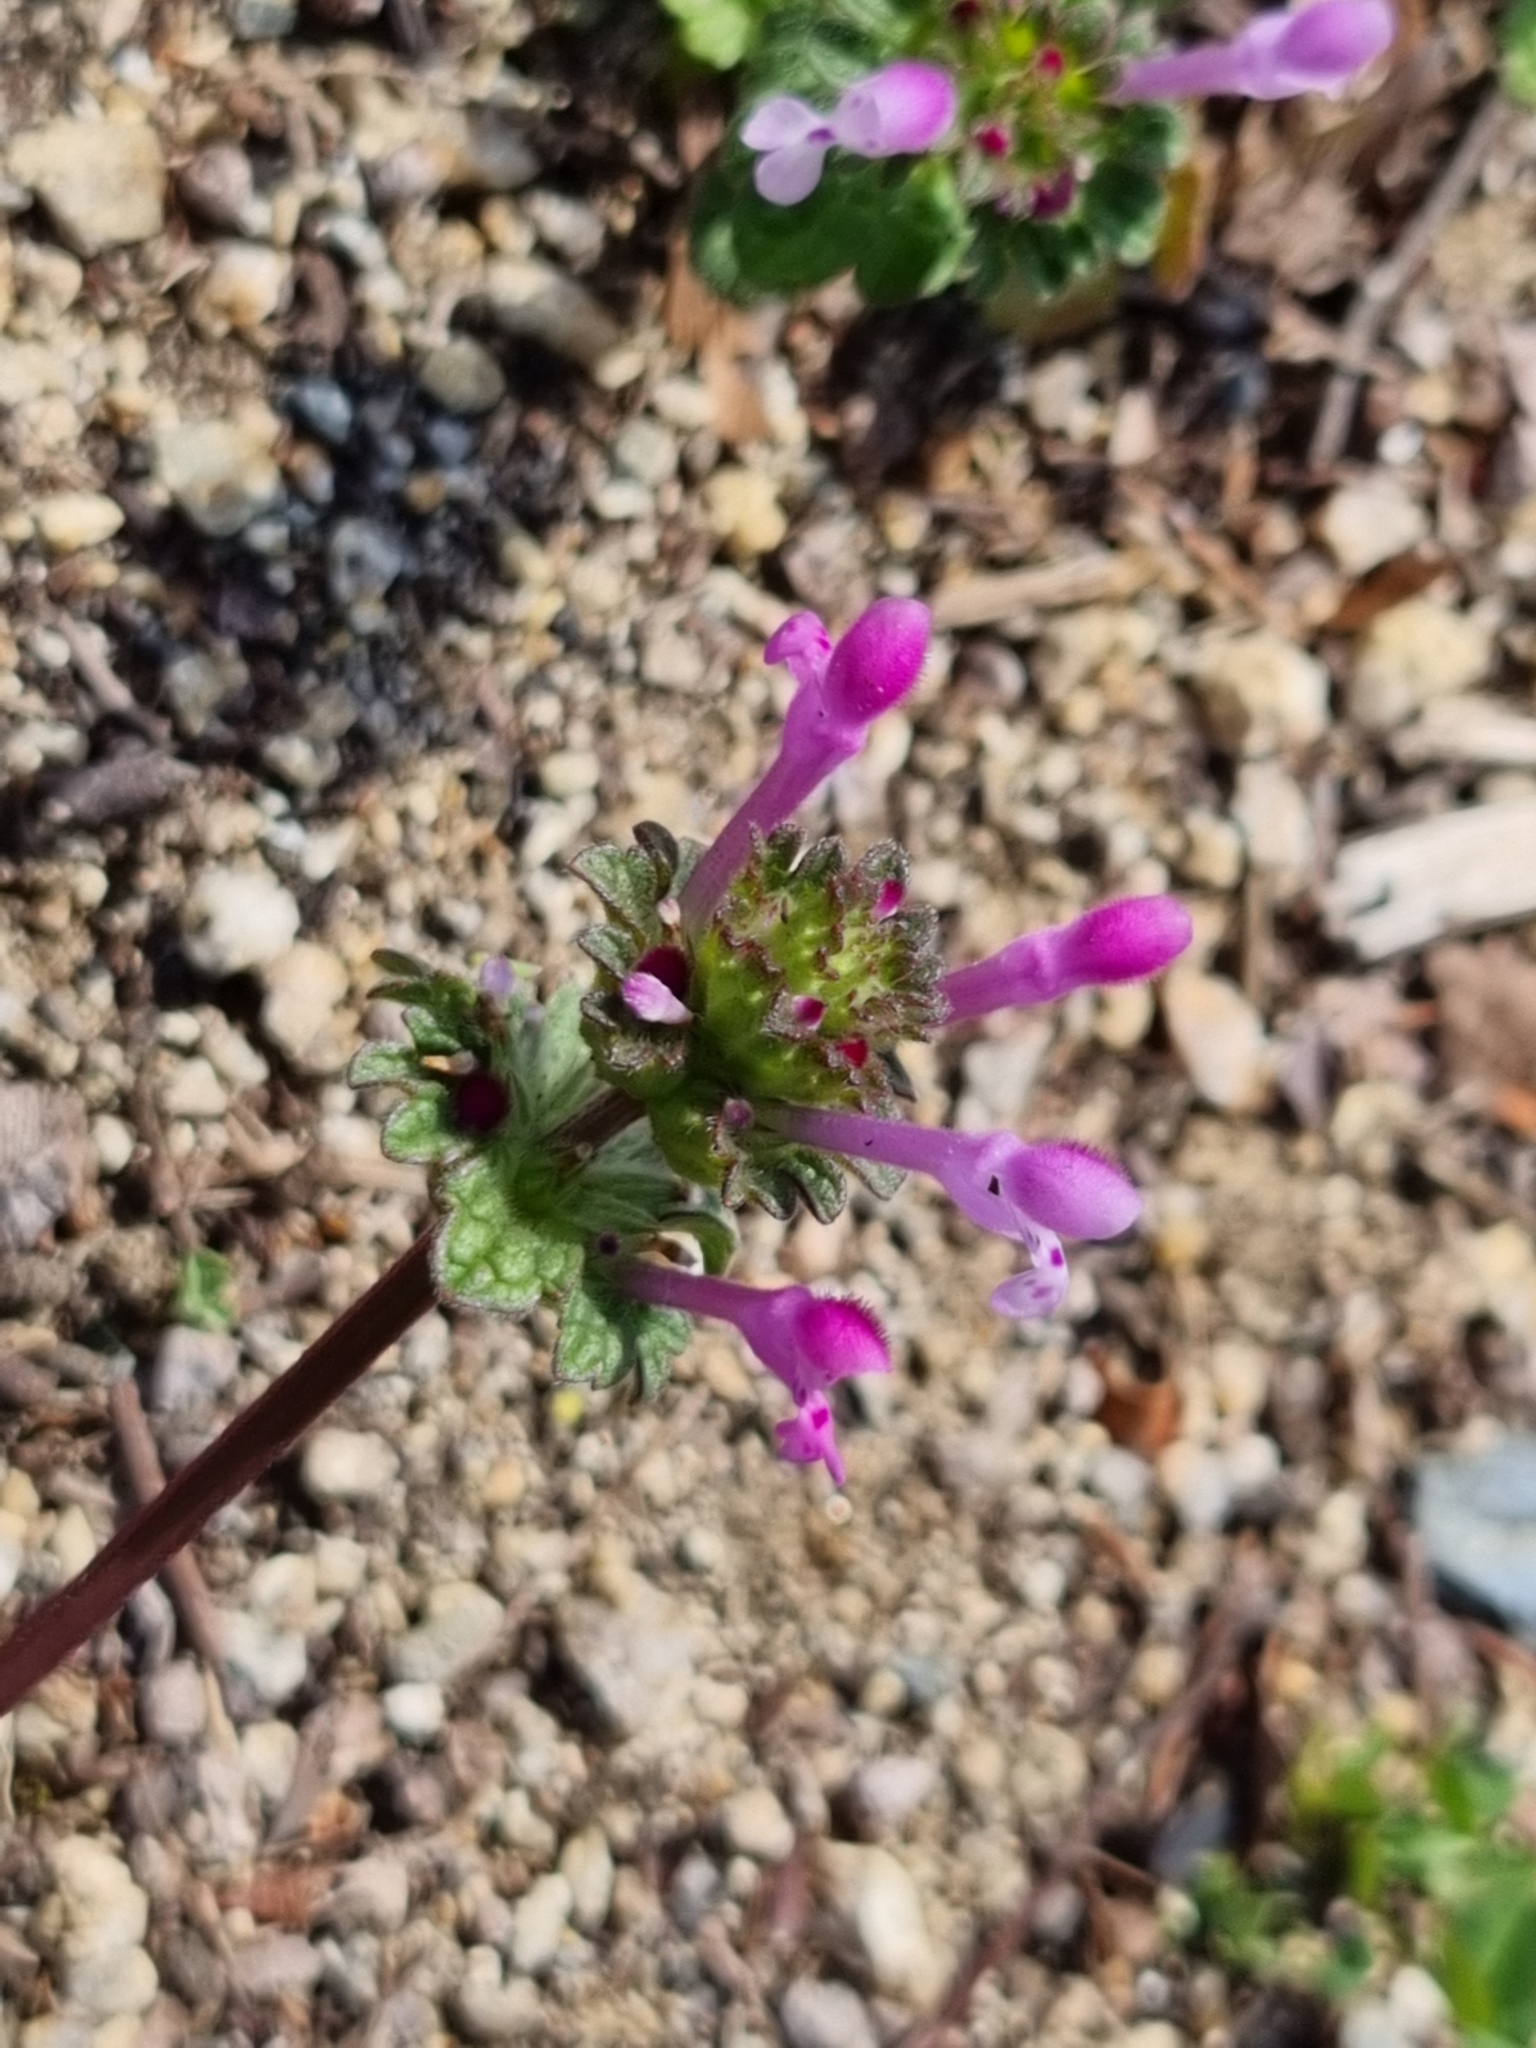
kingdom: Plantae
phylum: Tracheophyta
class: Magnoliopsida
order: Lamiales
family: Lamiaceae
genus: Lamium
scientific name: Lamium amplexicaule
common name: Henbit dead-nettle
